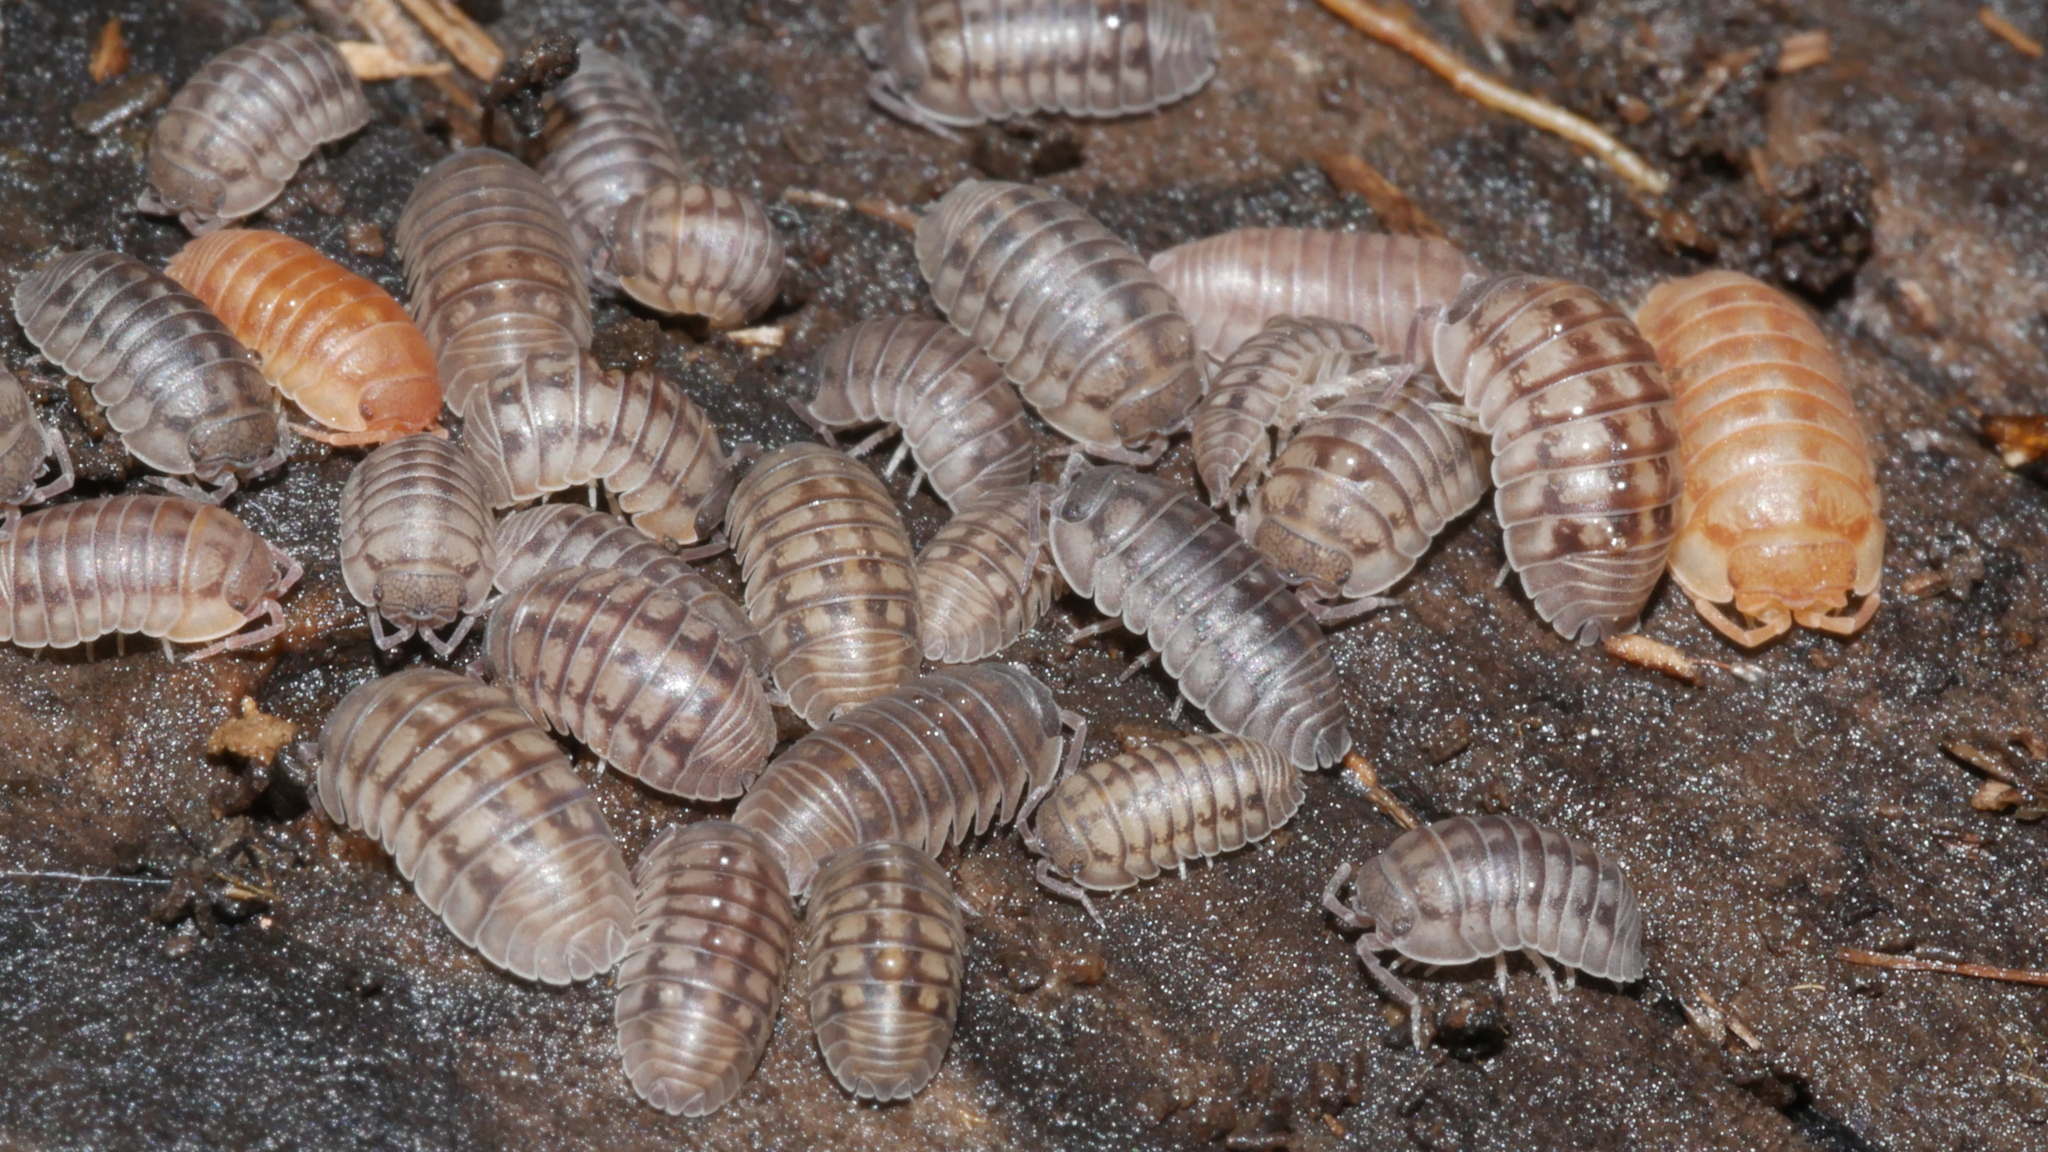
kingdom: Animalia
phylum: Arthropoda
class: Malacostraca
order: Isopoda
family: Armadillidiidae
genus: Armadillidium
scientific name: Armadillidium nasatum
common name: Isopod
